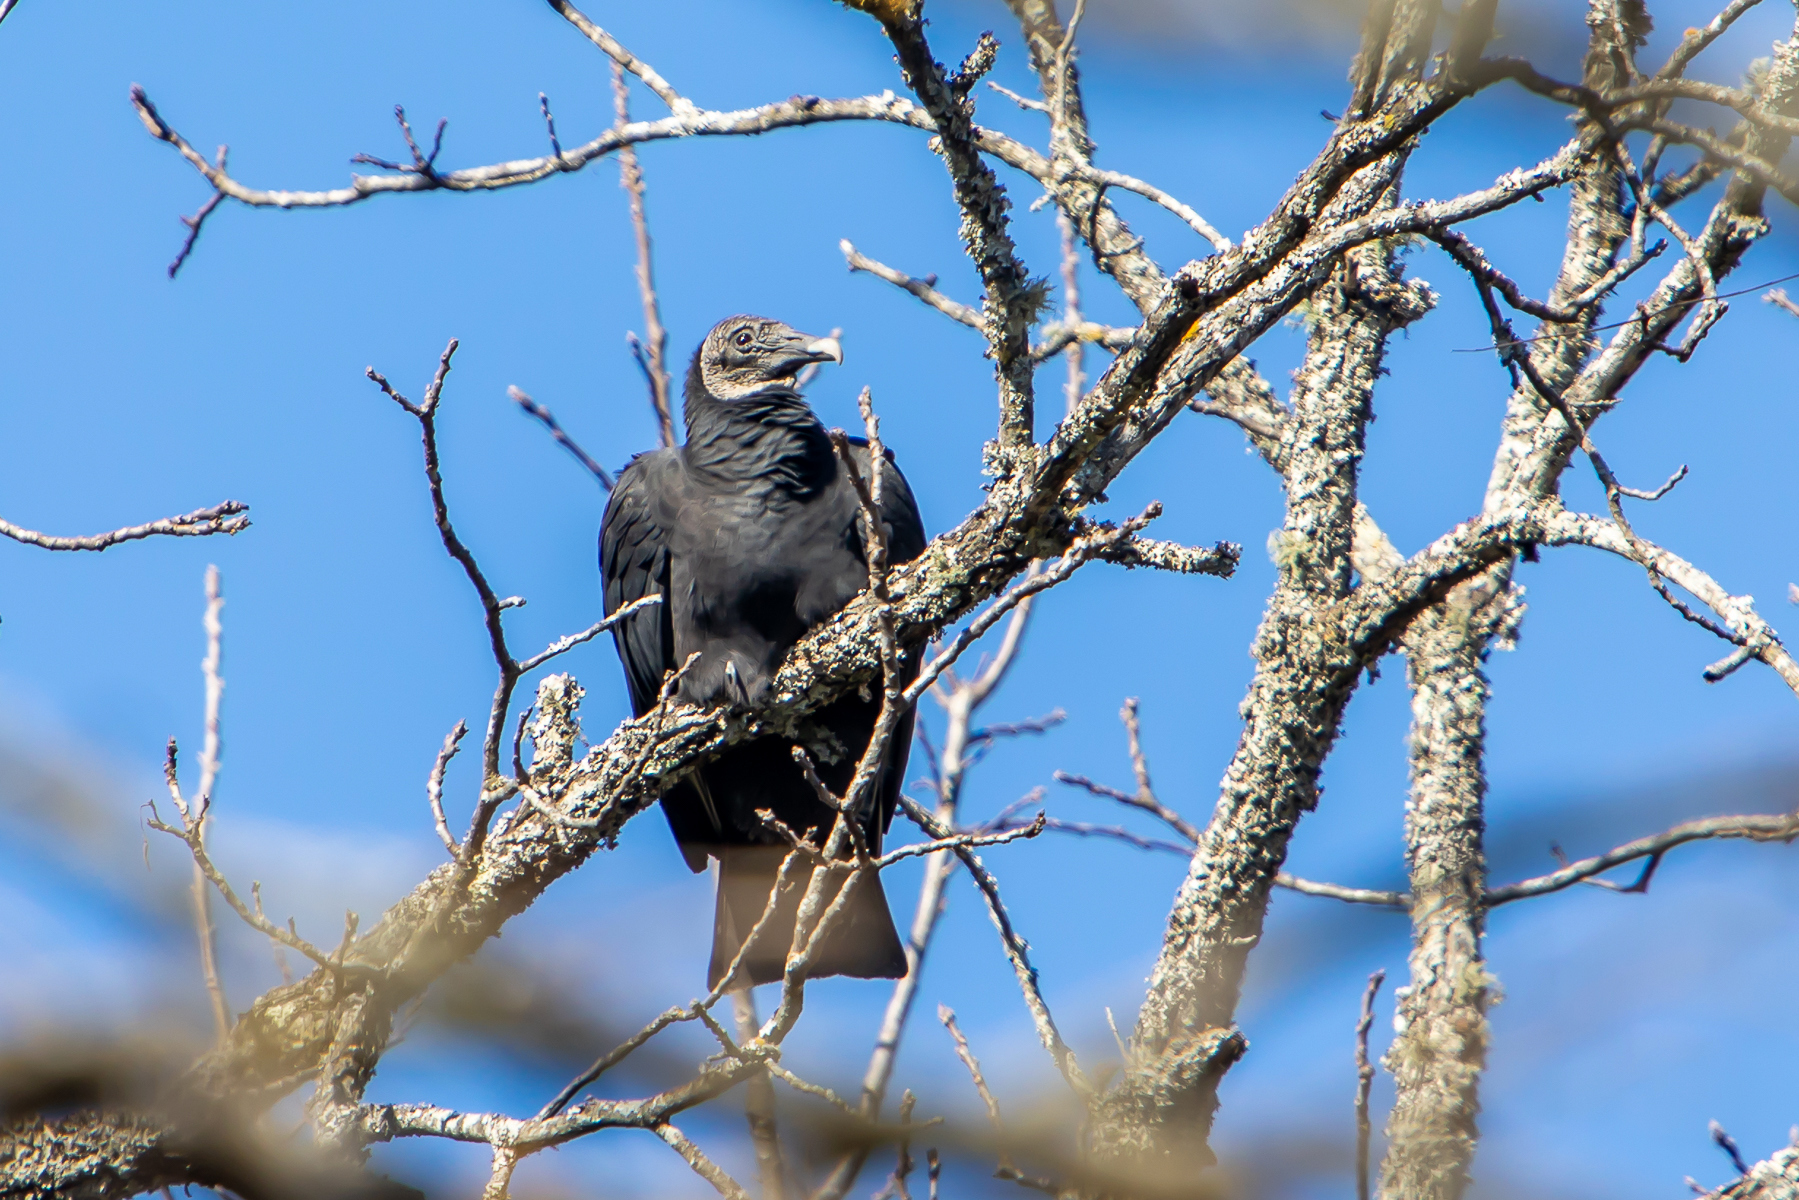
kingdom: Animalia
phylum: Chordata
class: Aves
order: Accipitriformes
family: Cathartidae
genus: Coragyps
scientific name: Coragyps atratus
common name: Black vulture
